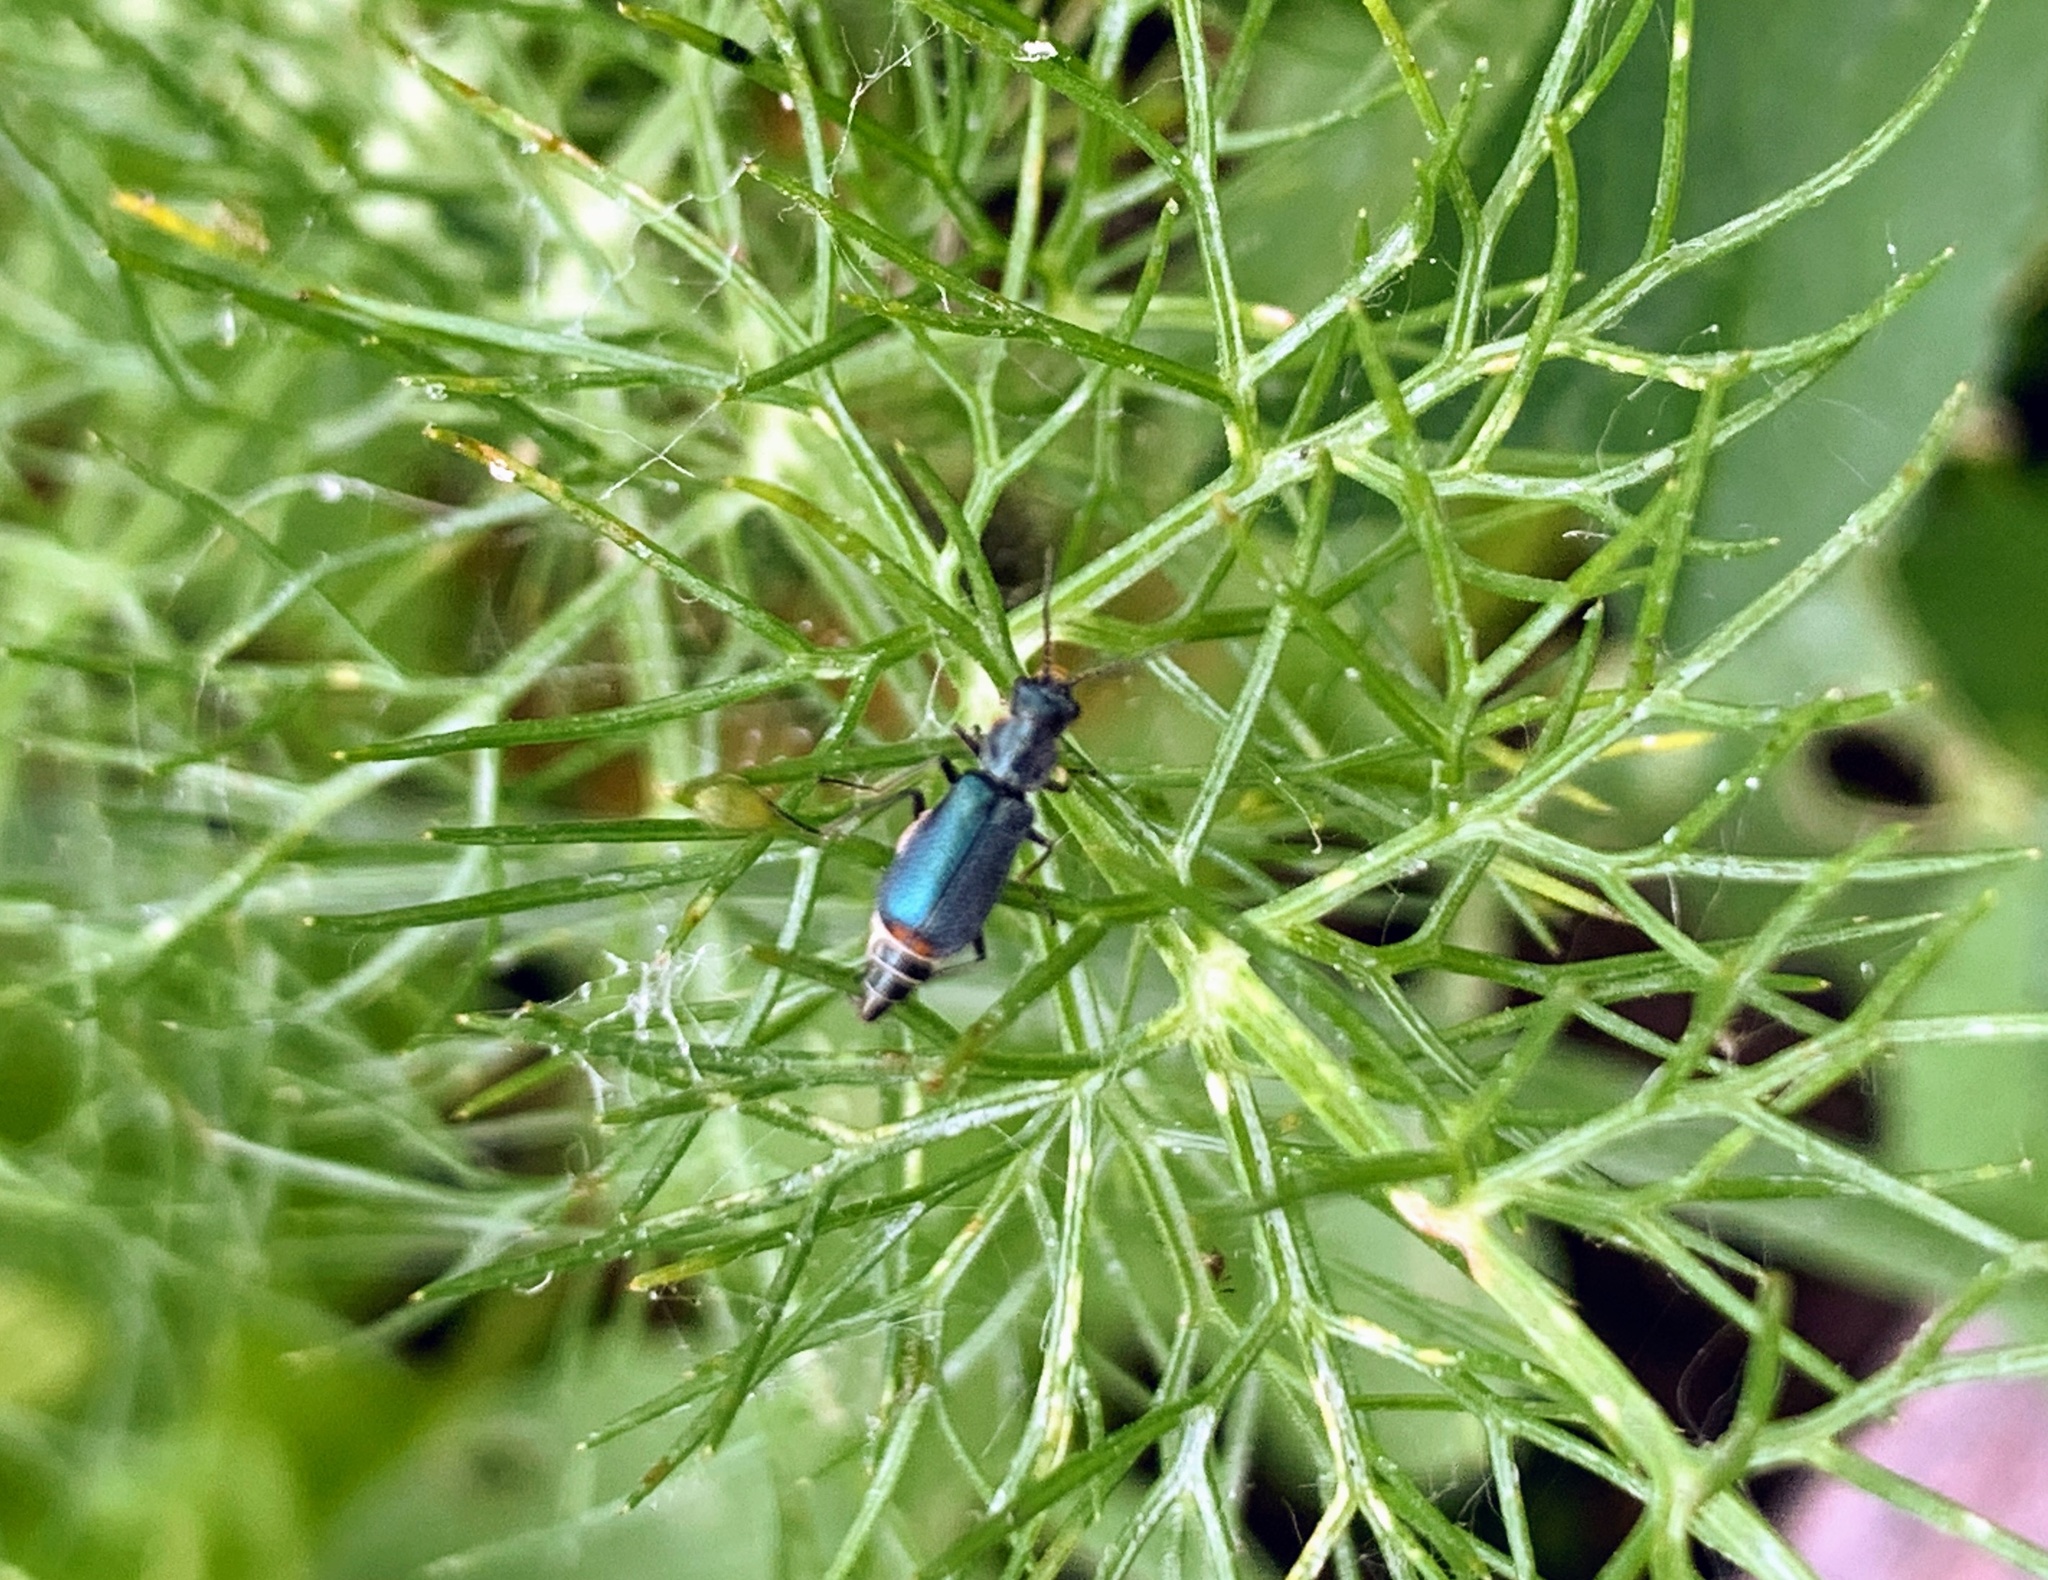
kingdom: Animalia
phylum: Arthropoda
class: Insecta
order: Coleoptera
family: Malachiidae
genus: Cordylepherus
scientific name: Cordylepherus viridis
